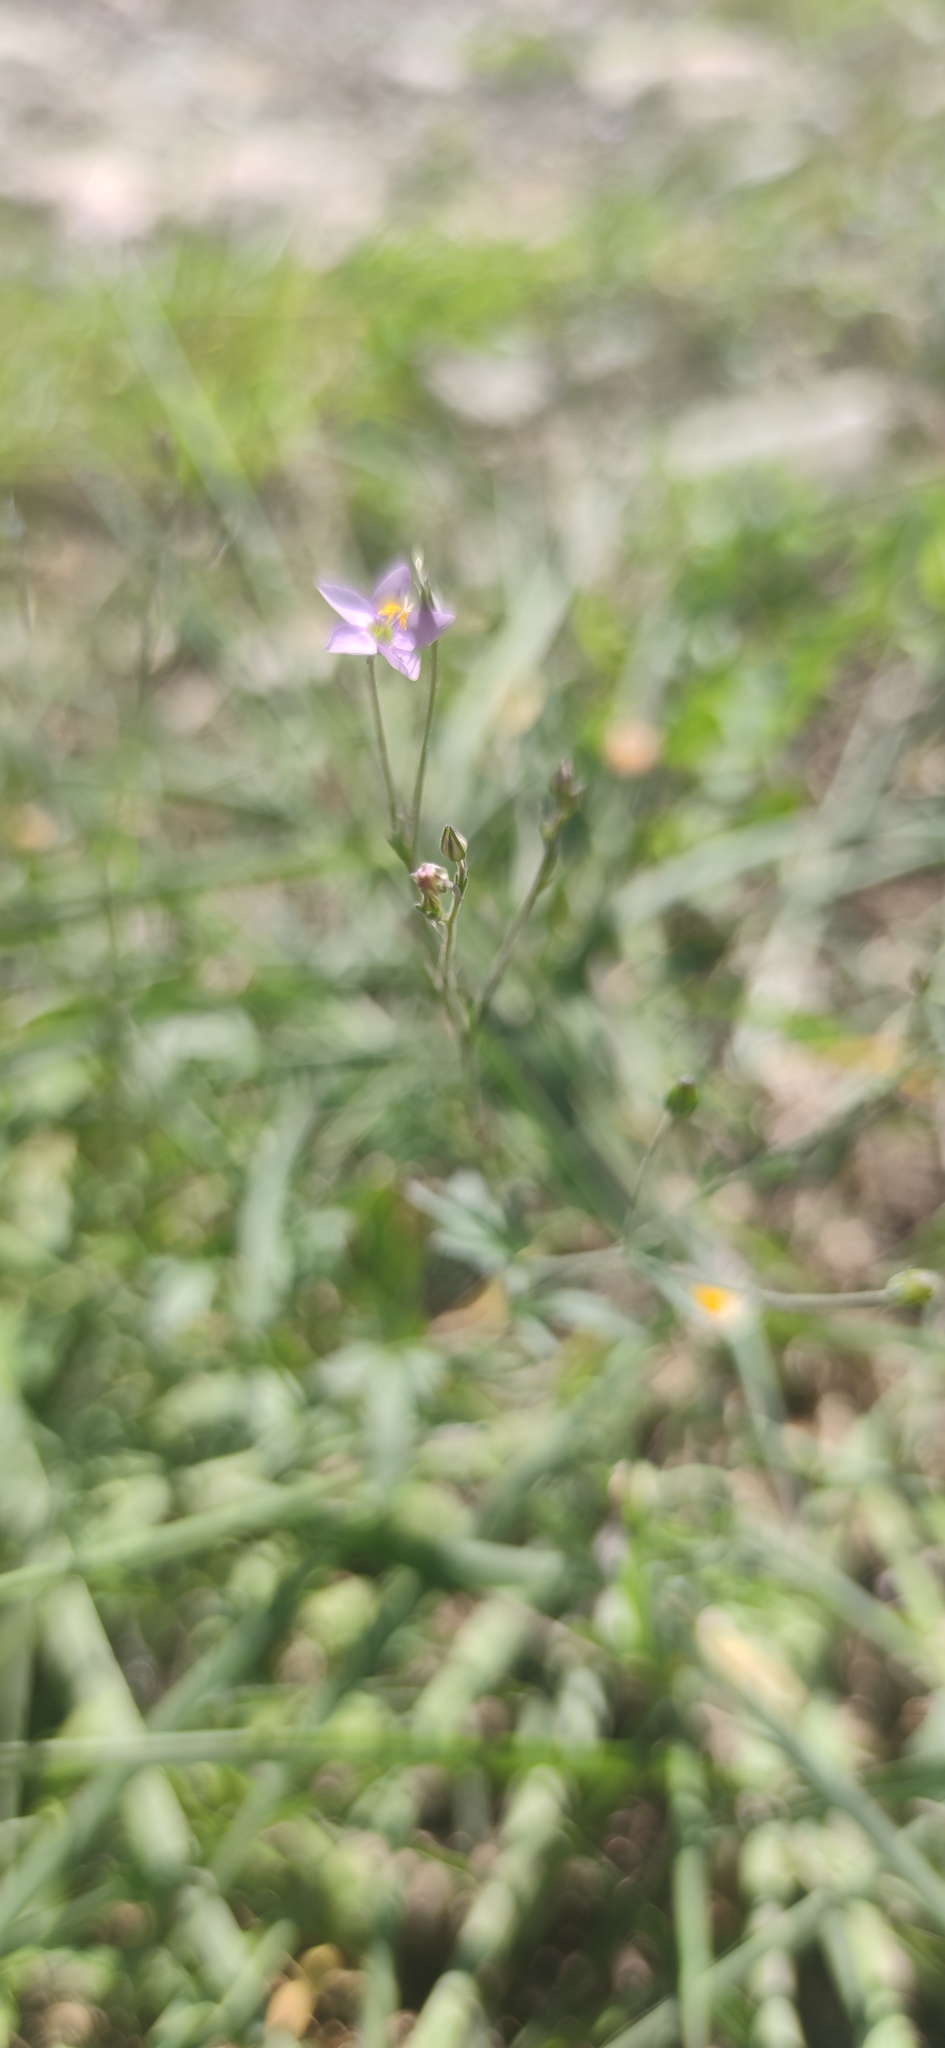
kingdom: Plantae
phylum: Tracheophyta
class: Magnoliopsida
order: Ericales
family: Polemoniaceae
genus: Giliastrum
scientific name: Giliastrum incisum
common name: Splitleaf gilia
